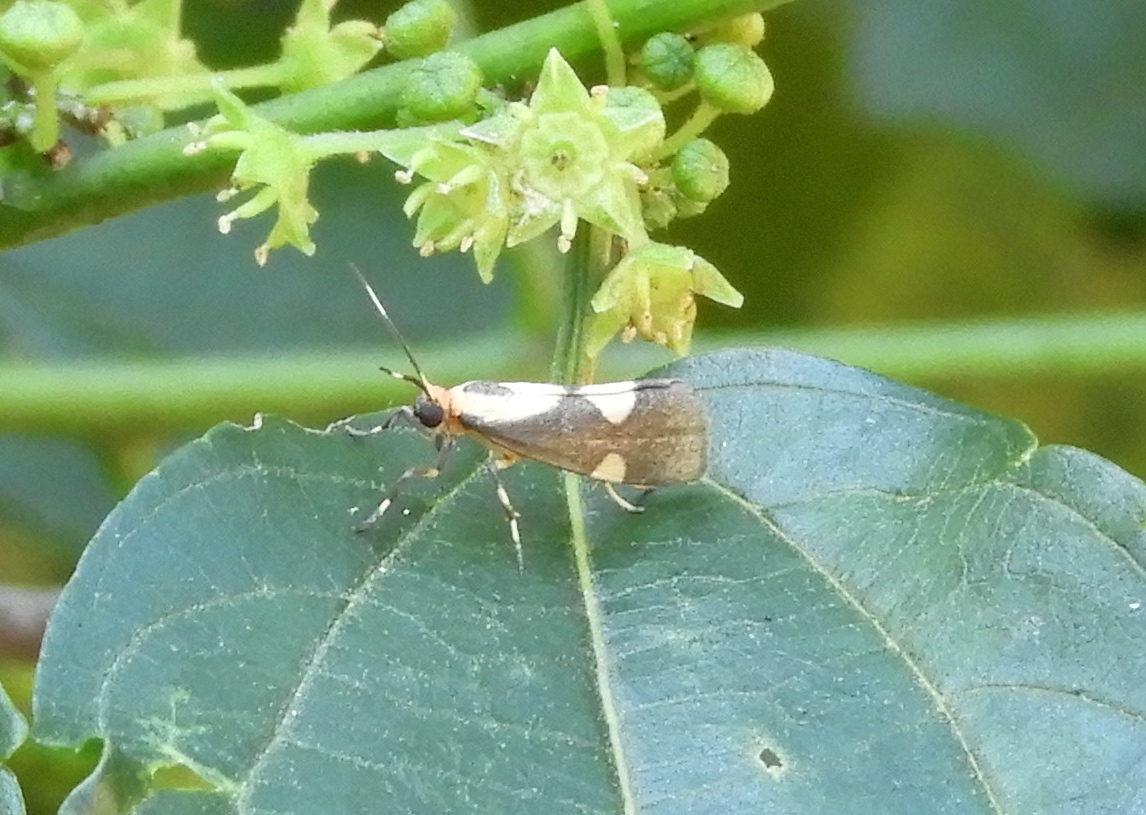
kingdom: Animalia
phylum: Arthropoda
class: Insecta
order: Lepidoptera
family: Erebidae
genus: Cisthene
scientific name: Cisthene subrufa
